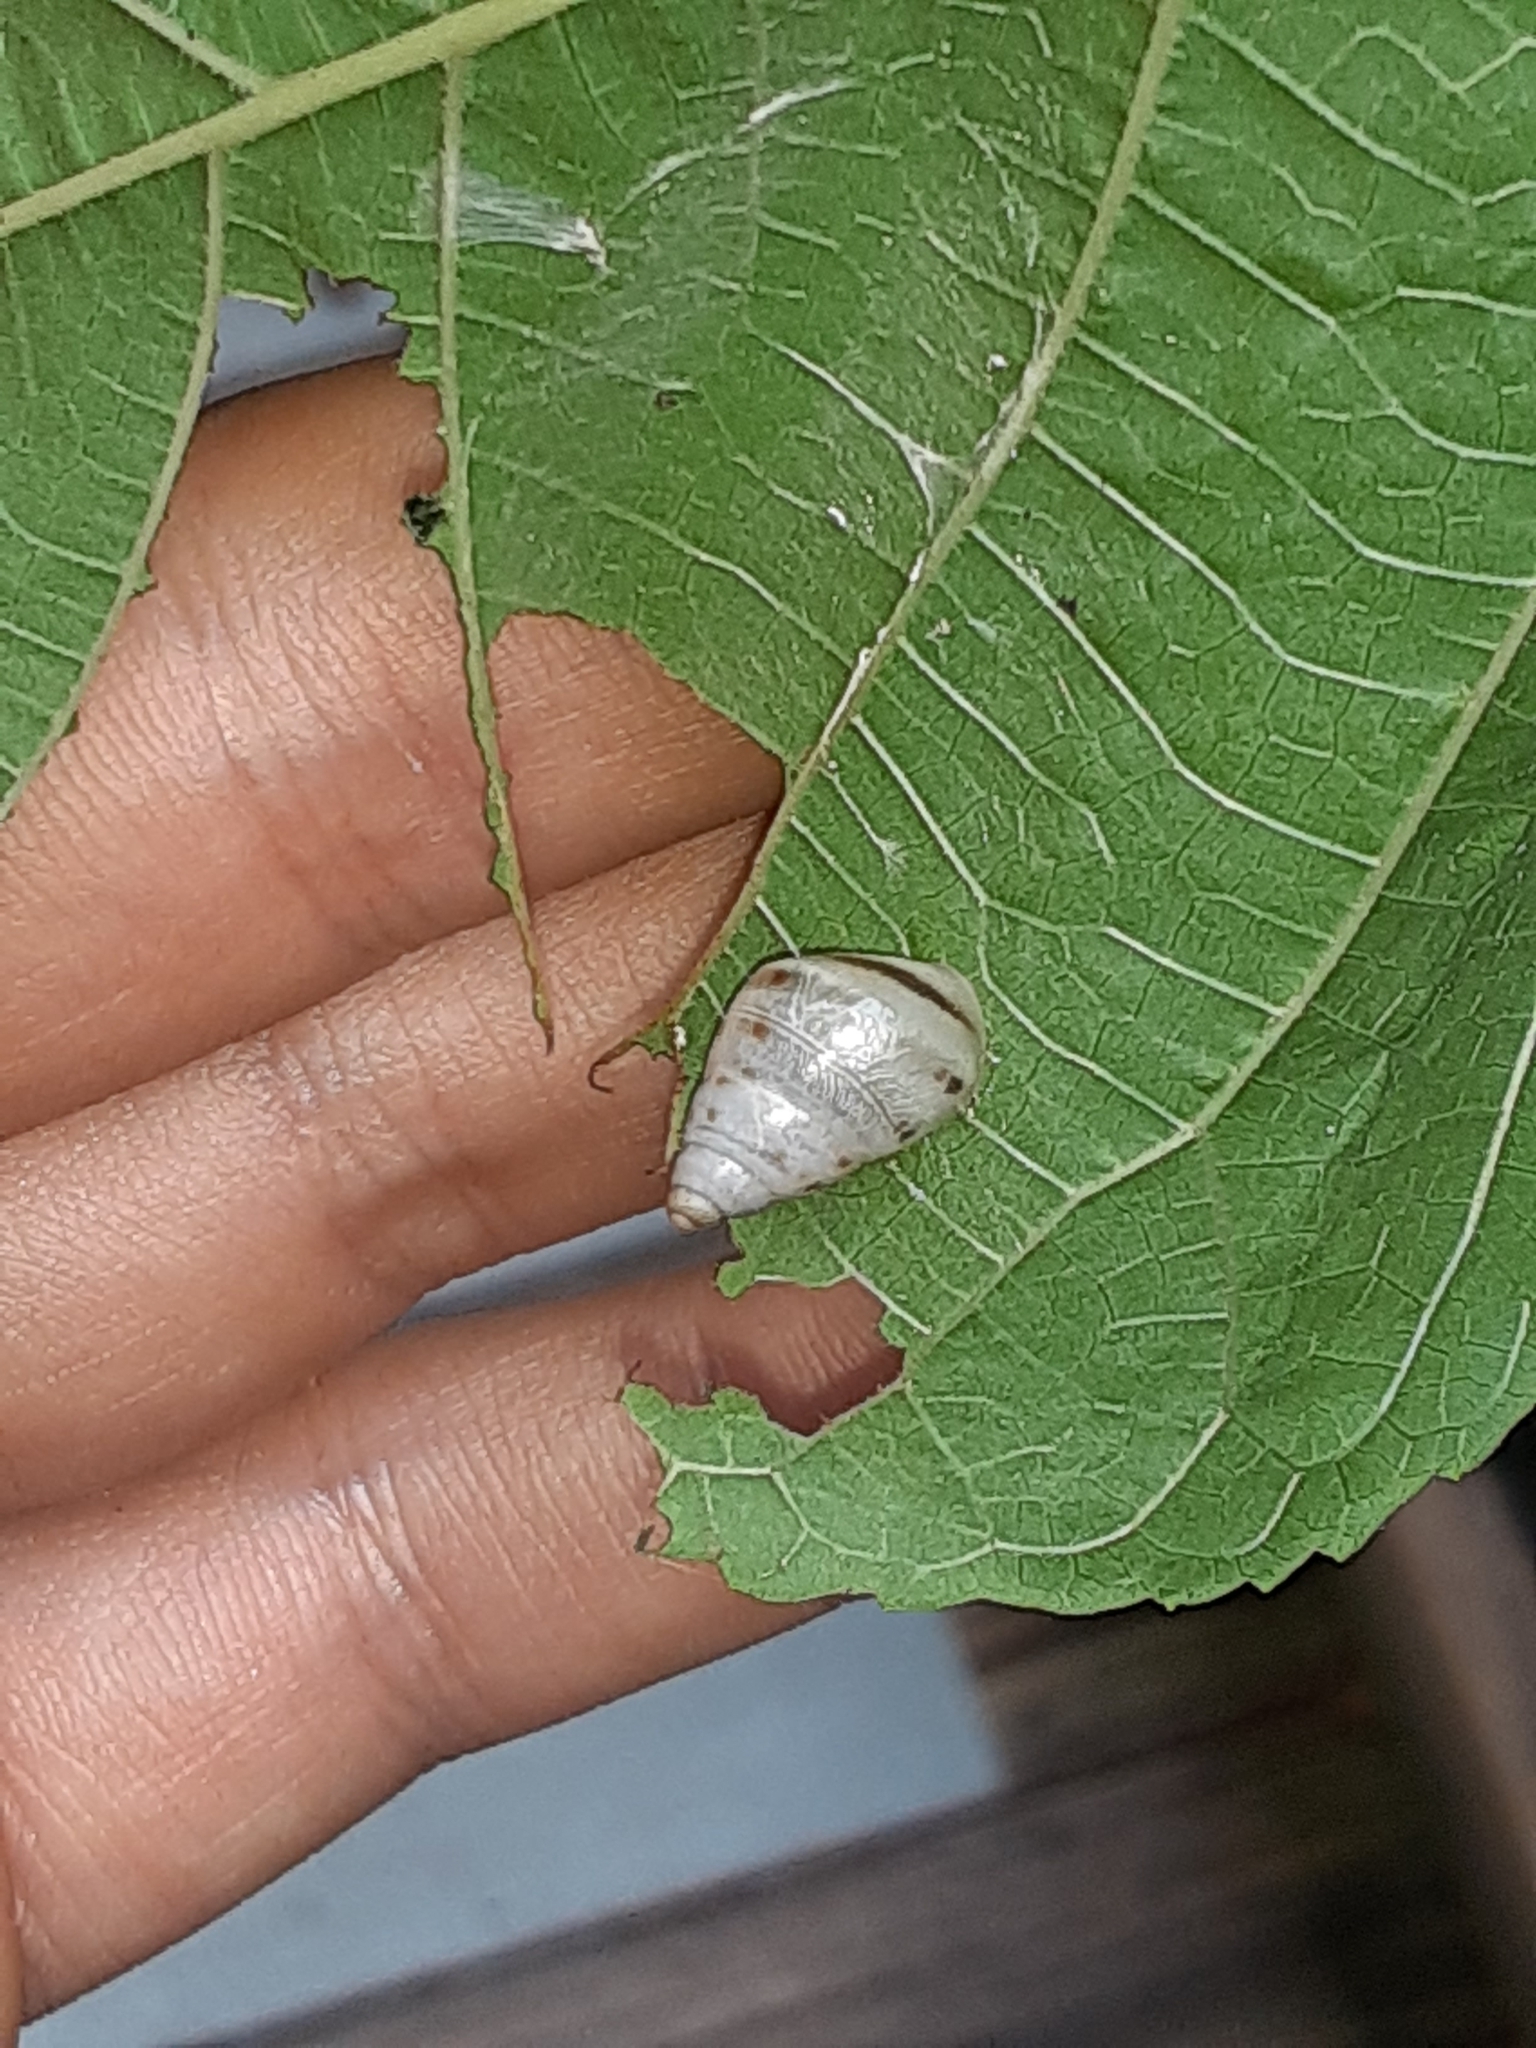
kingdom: Animalia
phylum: Mollusca
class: Gastropoda
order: Stylommatophora
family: Bulimulidae
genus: Drymaeus
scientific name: Drymaeus dormani
